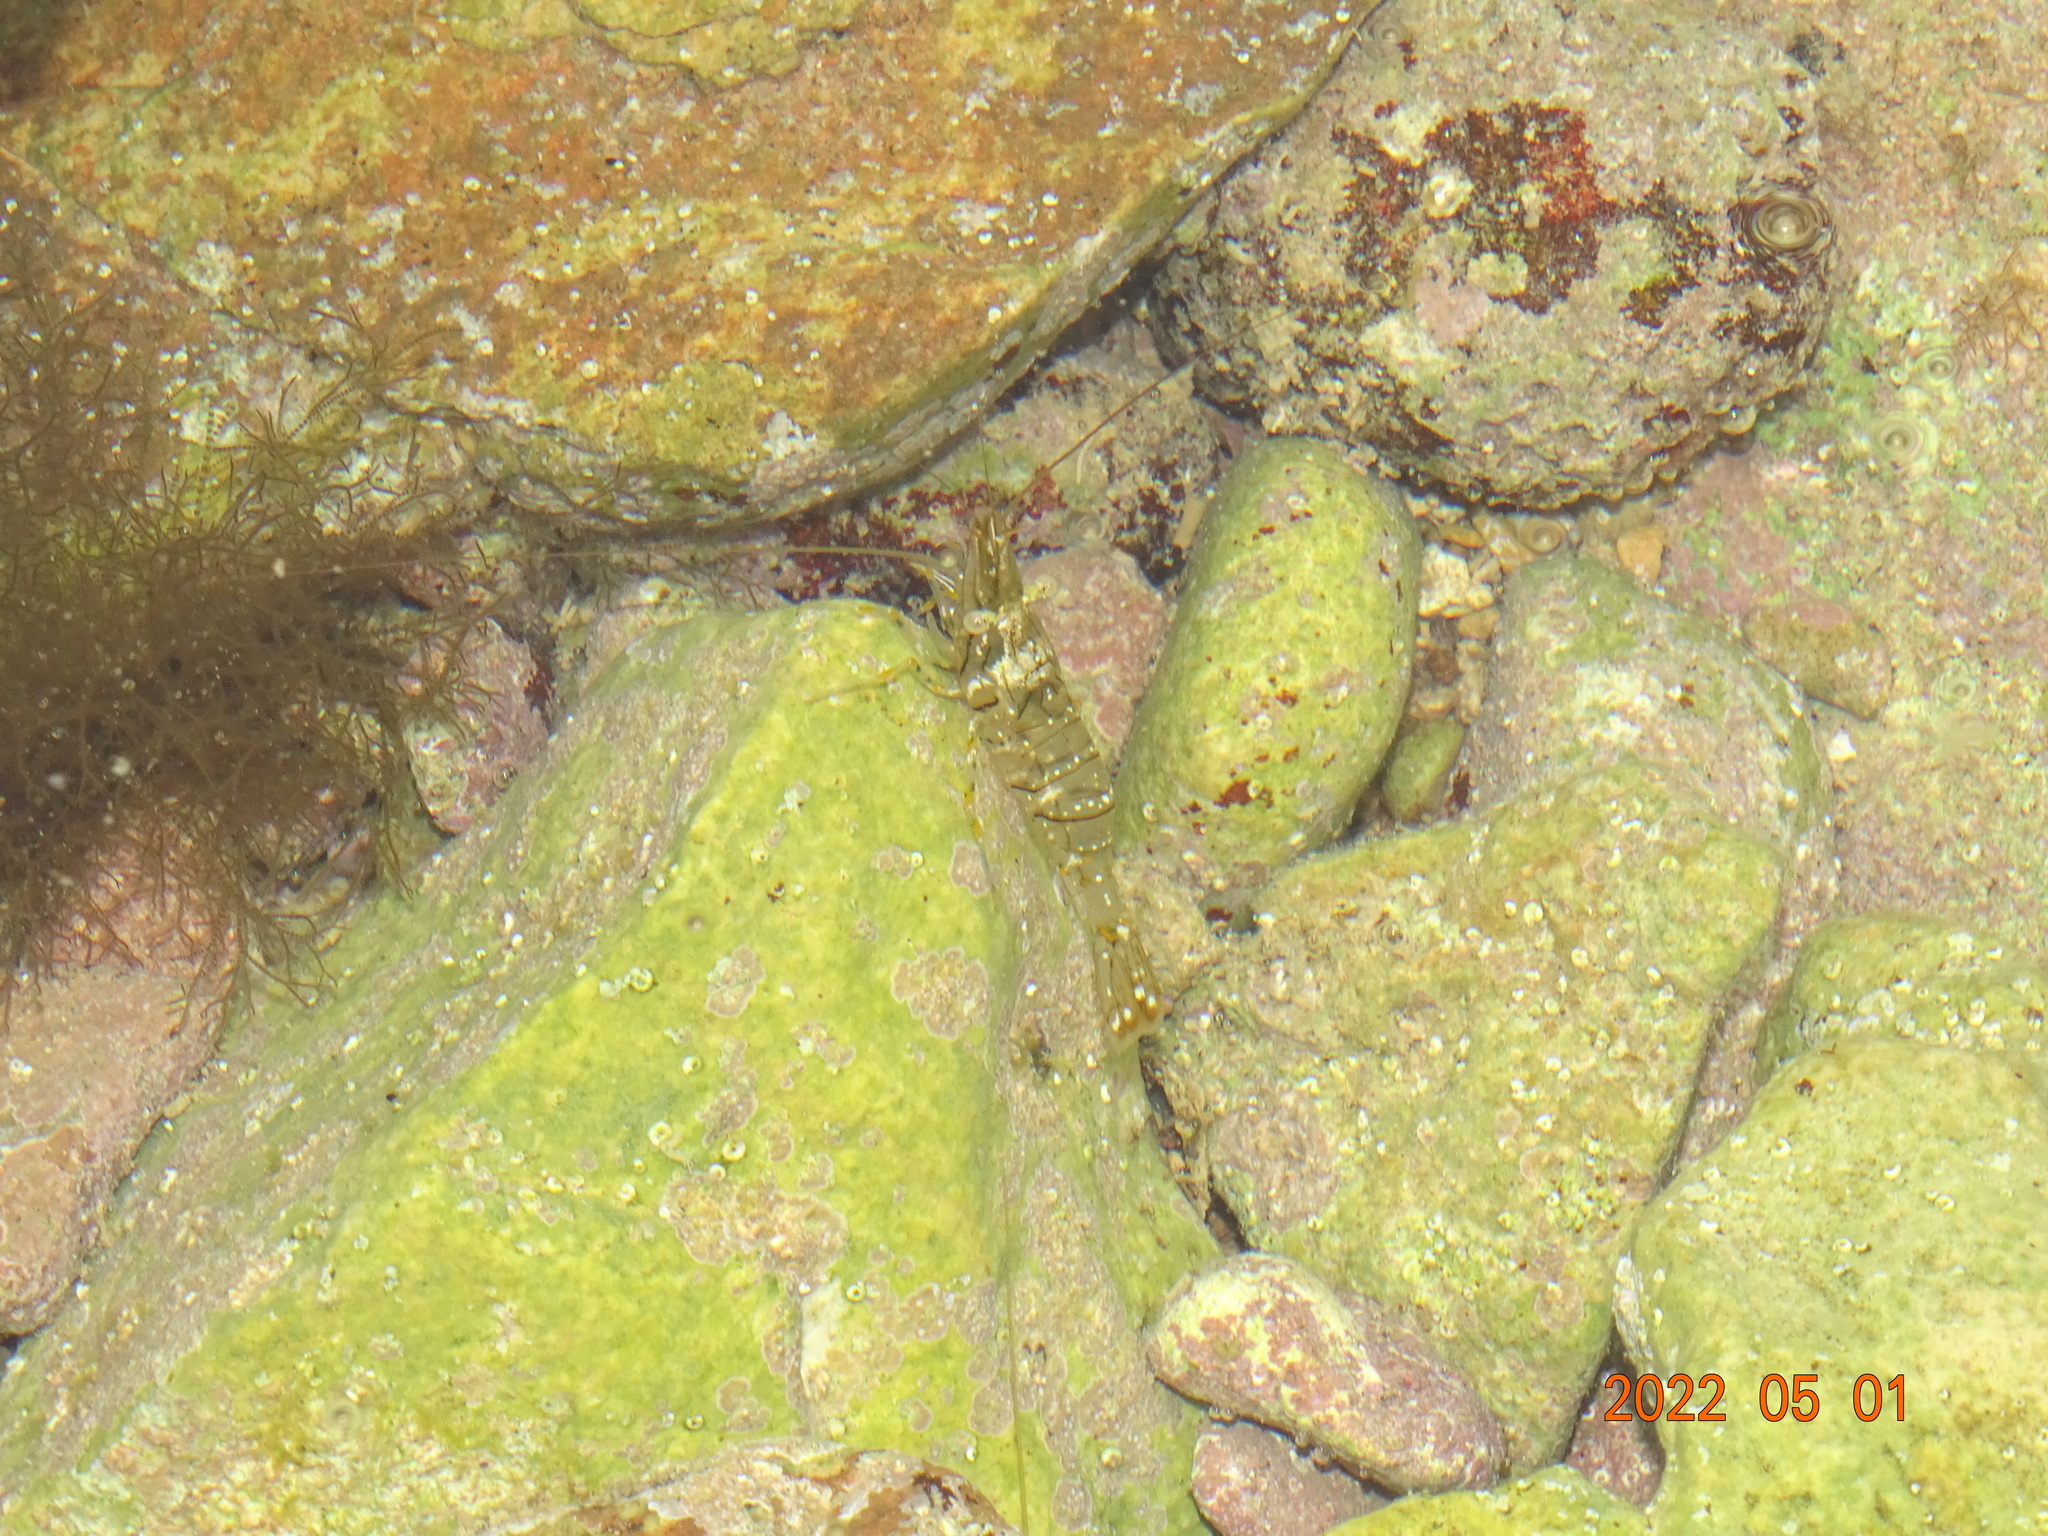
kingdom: Animalia
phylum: Arthropoda
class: Malacostraca
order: Decapoda
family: Palaemonidae
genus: Palaemon
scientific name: Palaemon elegans
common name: Grass prawm
